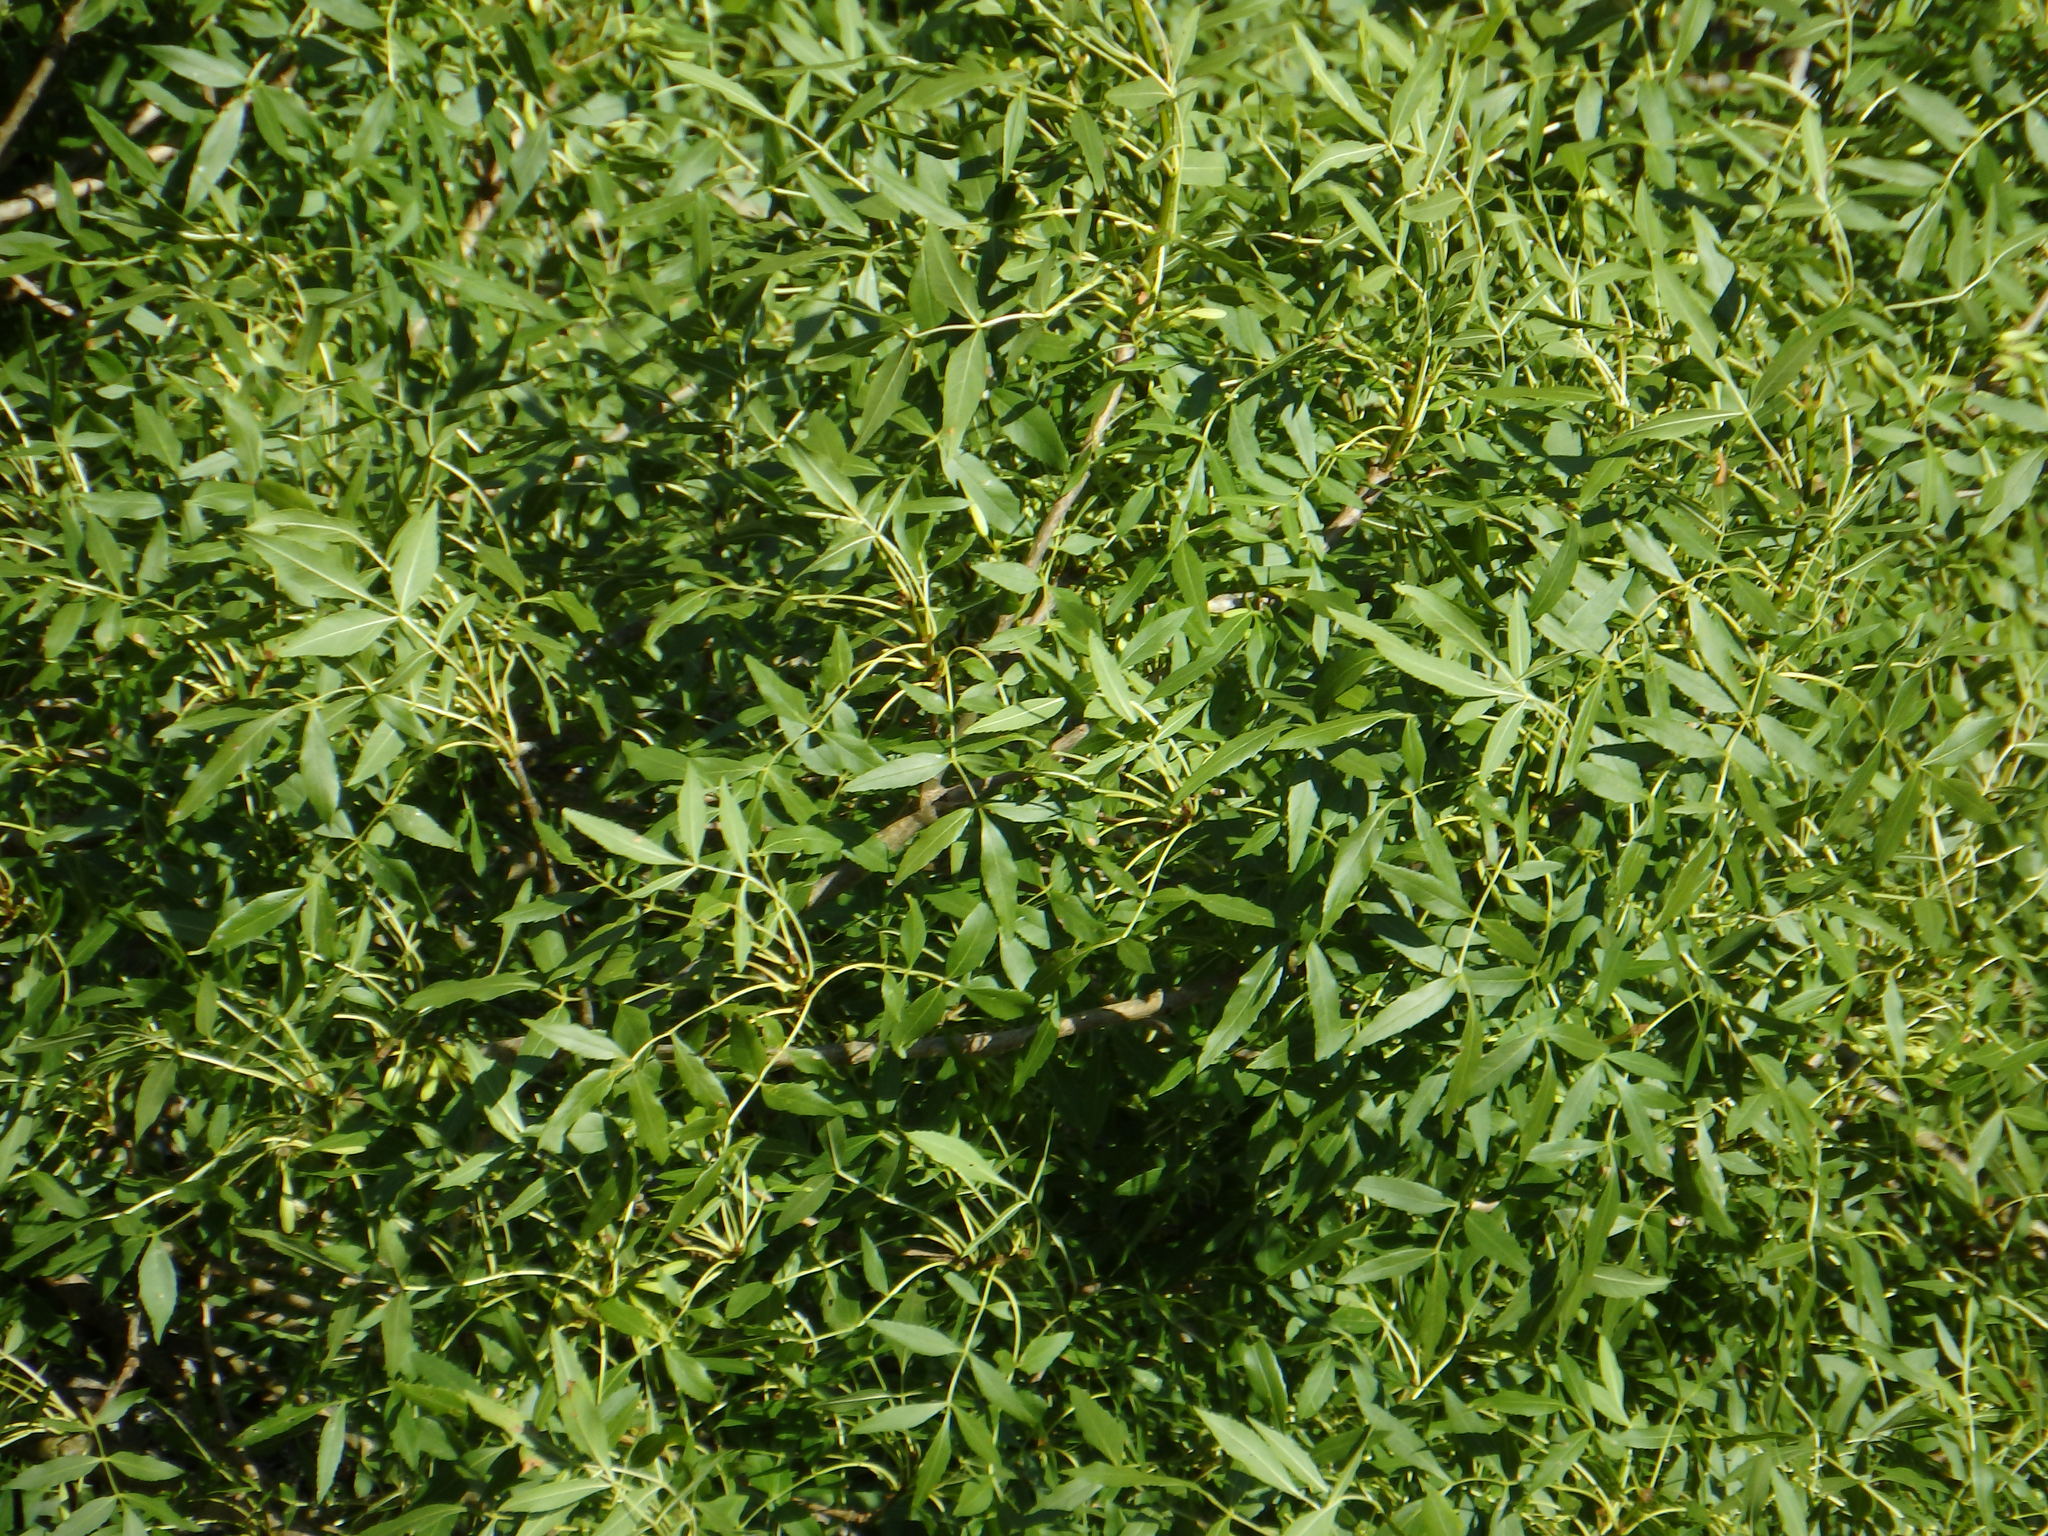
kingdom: Plantae
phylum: Tracheophyta
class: Magnoliopsida
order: Lamiales
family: Oleaceae
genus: Fraxinus
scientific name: Fraxinus angustifolia
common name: Narrow-leafed ash
